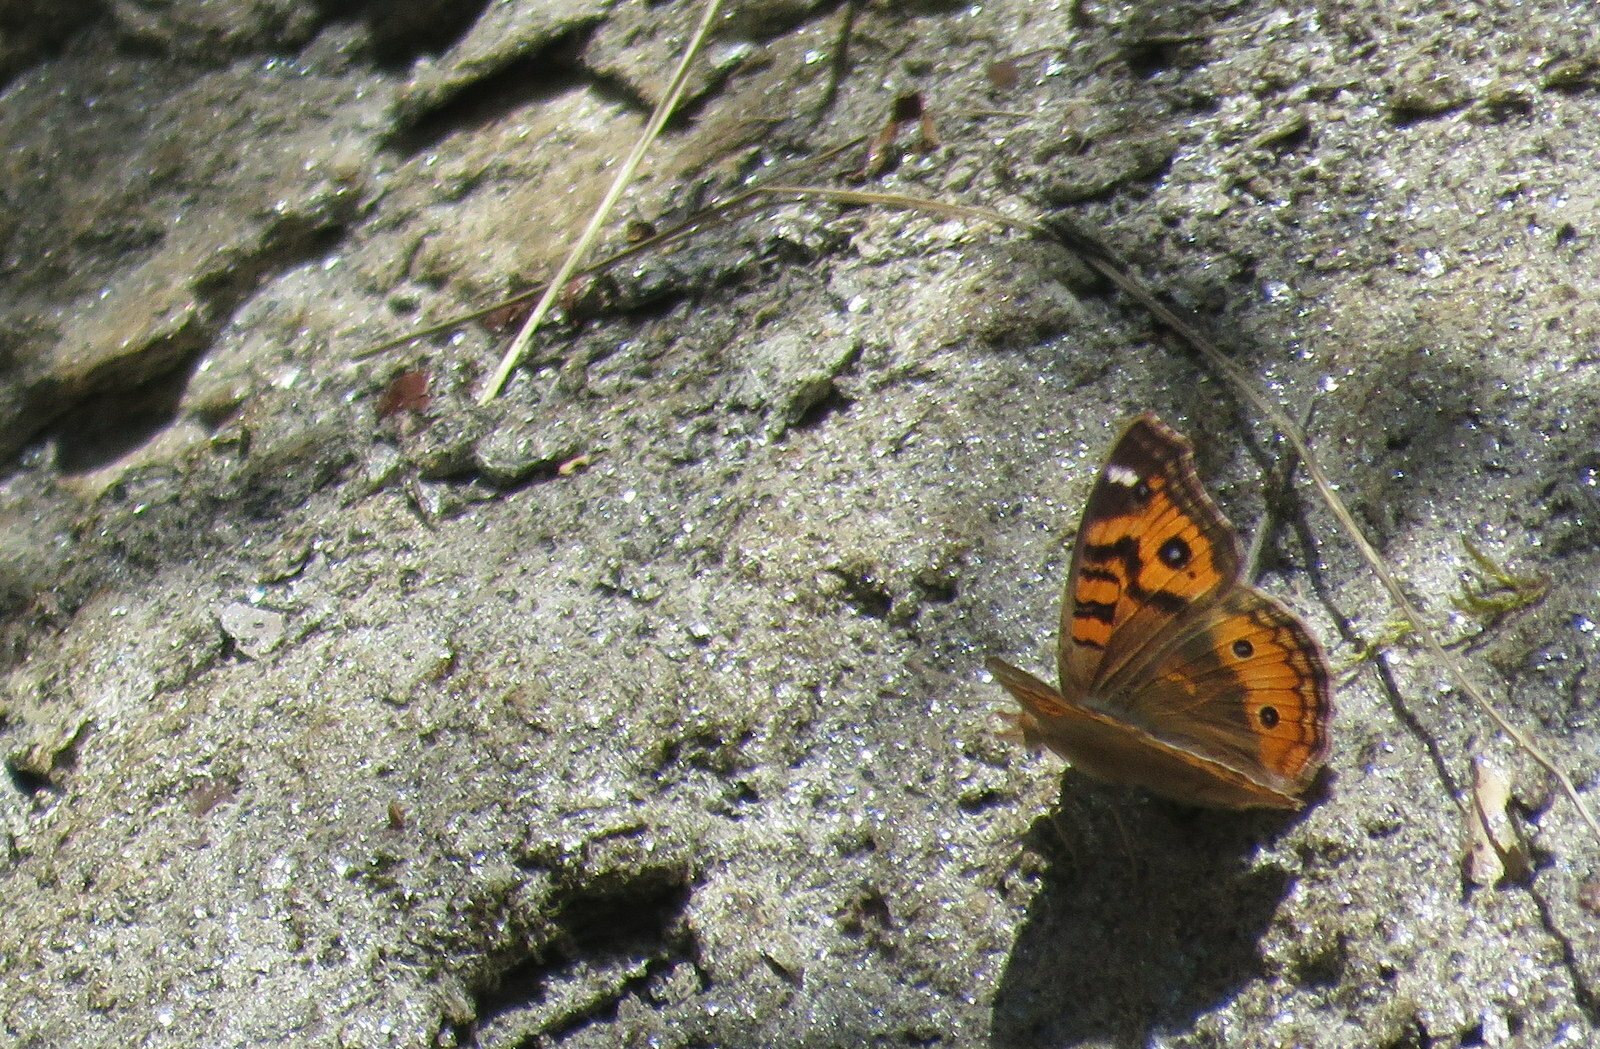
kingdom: Animalia
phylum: Arthropoda
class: Insecta
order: Lepidoptera
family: Nymphalidae
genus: Junonia
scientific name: Junonia vestina
